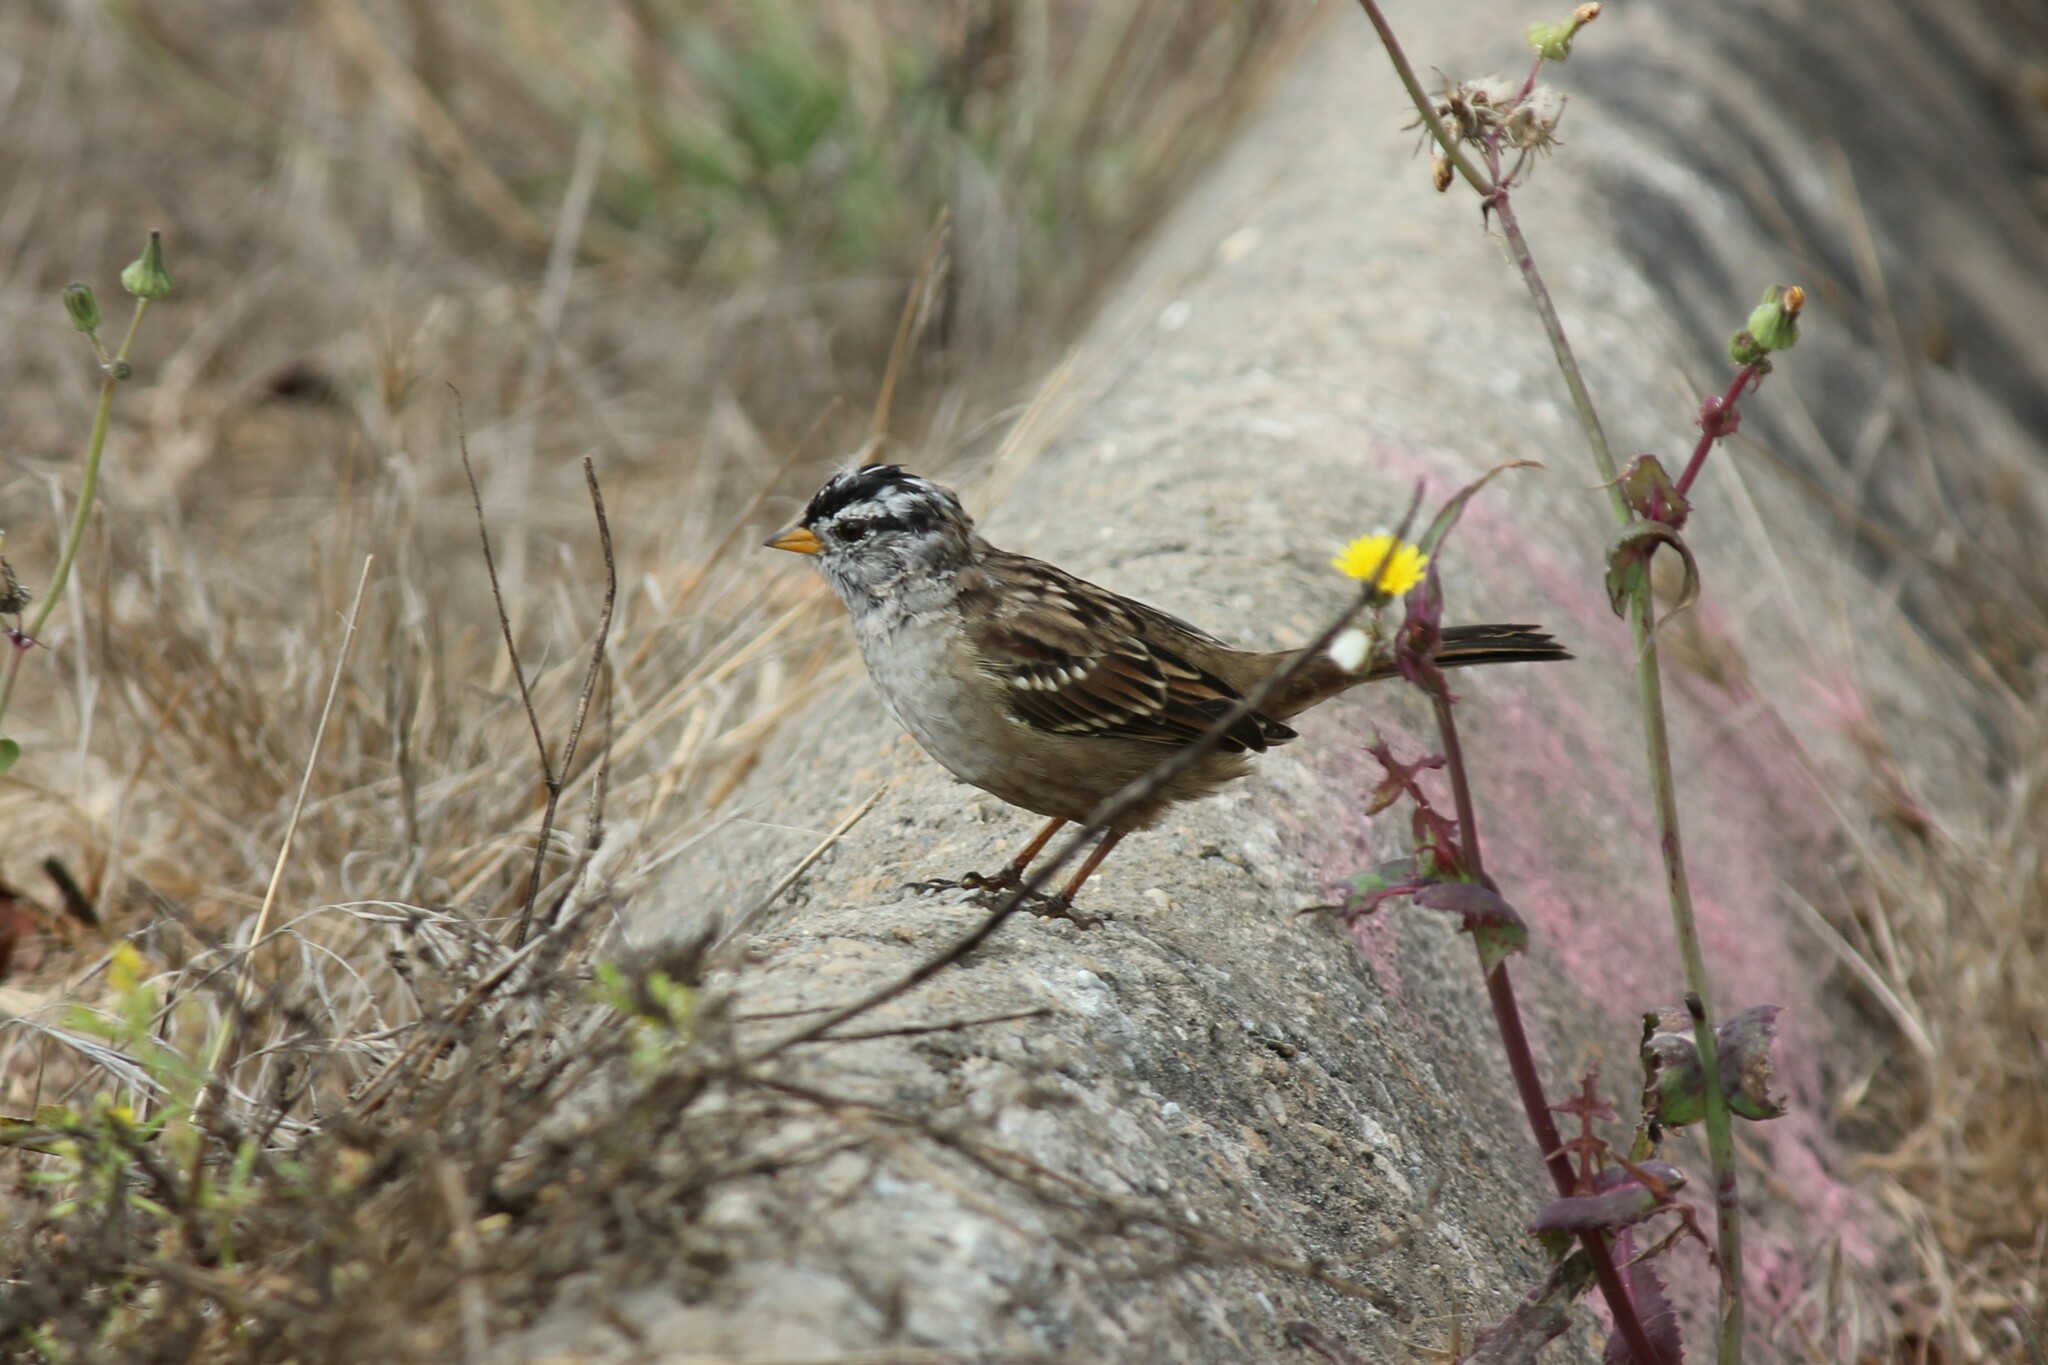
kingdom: Animalia
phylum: Chordata
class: Aves
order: Passeriformes
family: Passerellidae
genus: Zonotrichia
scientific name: Zonotrichia leucophrys
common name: White-crowned sparrow
